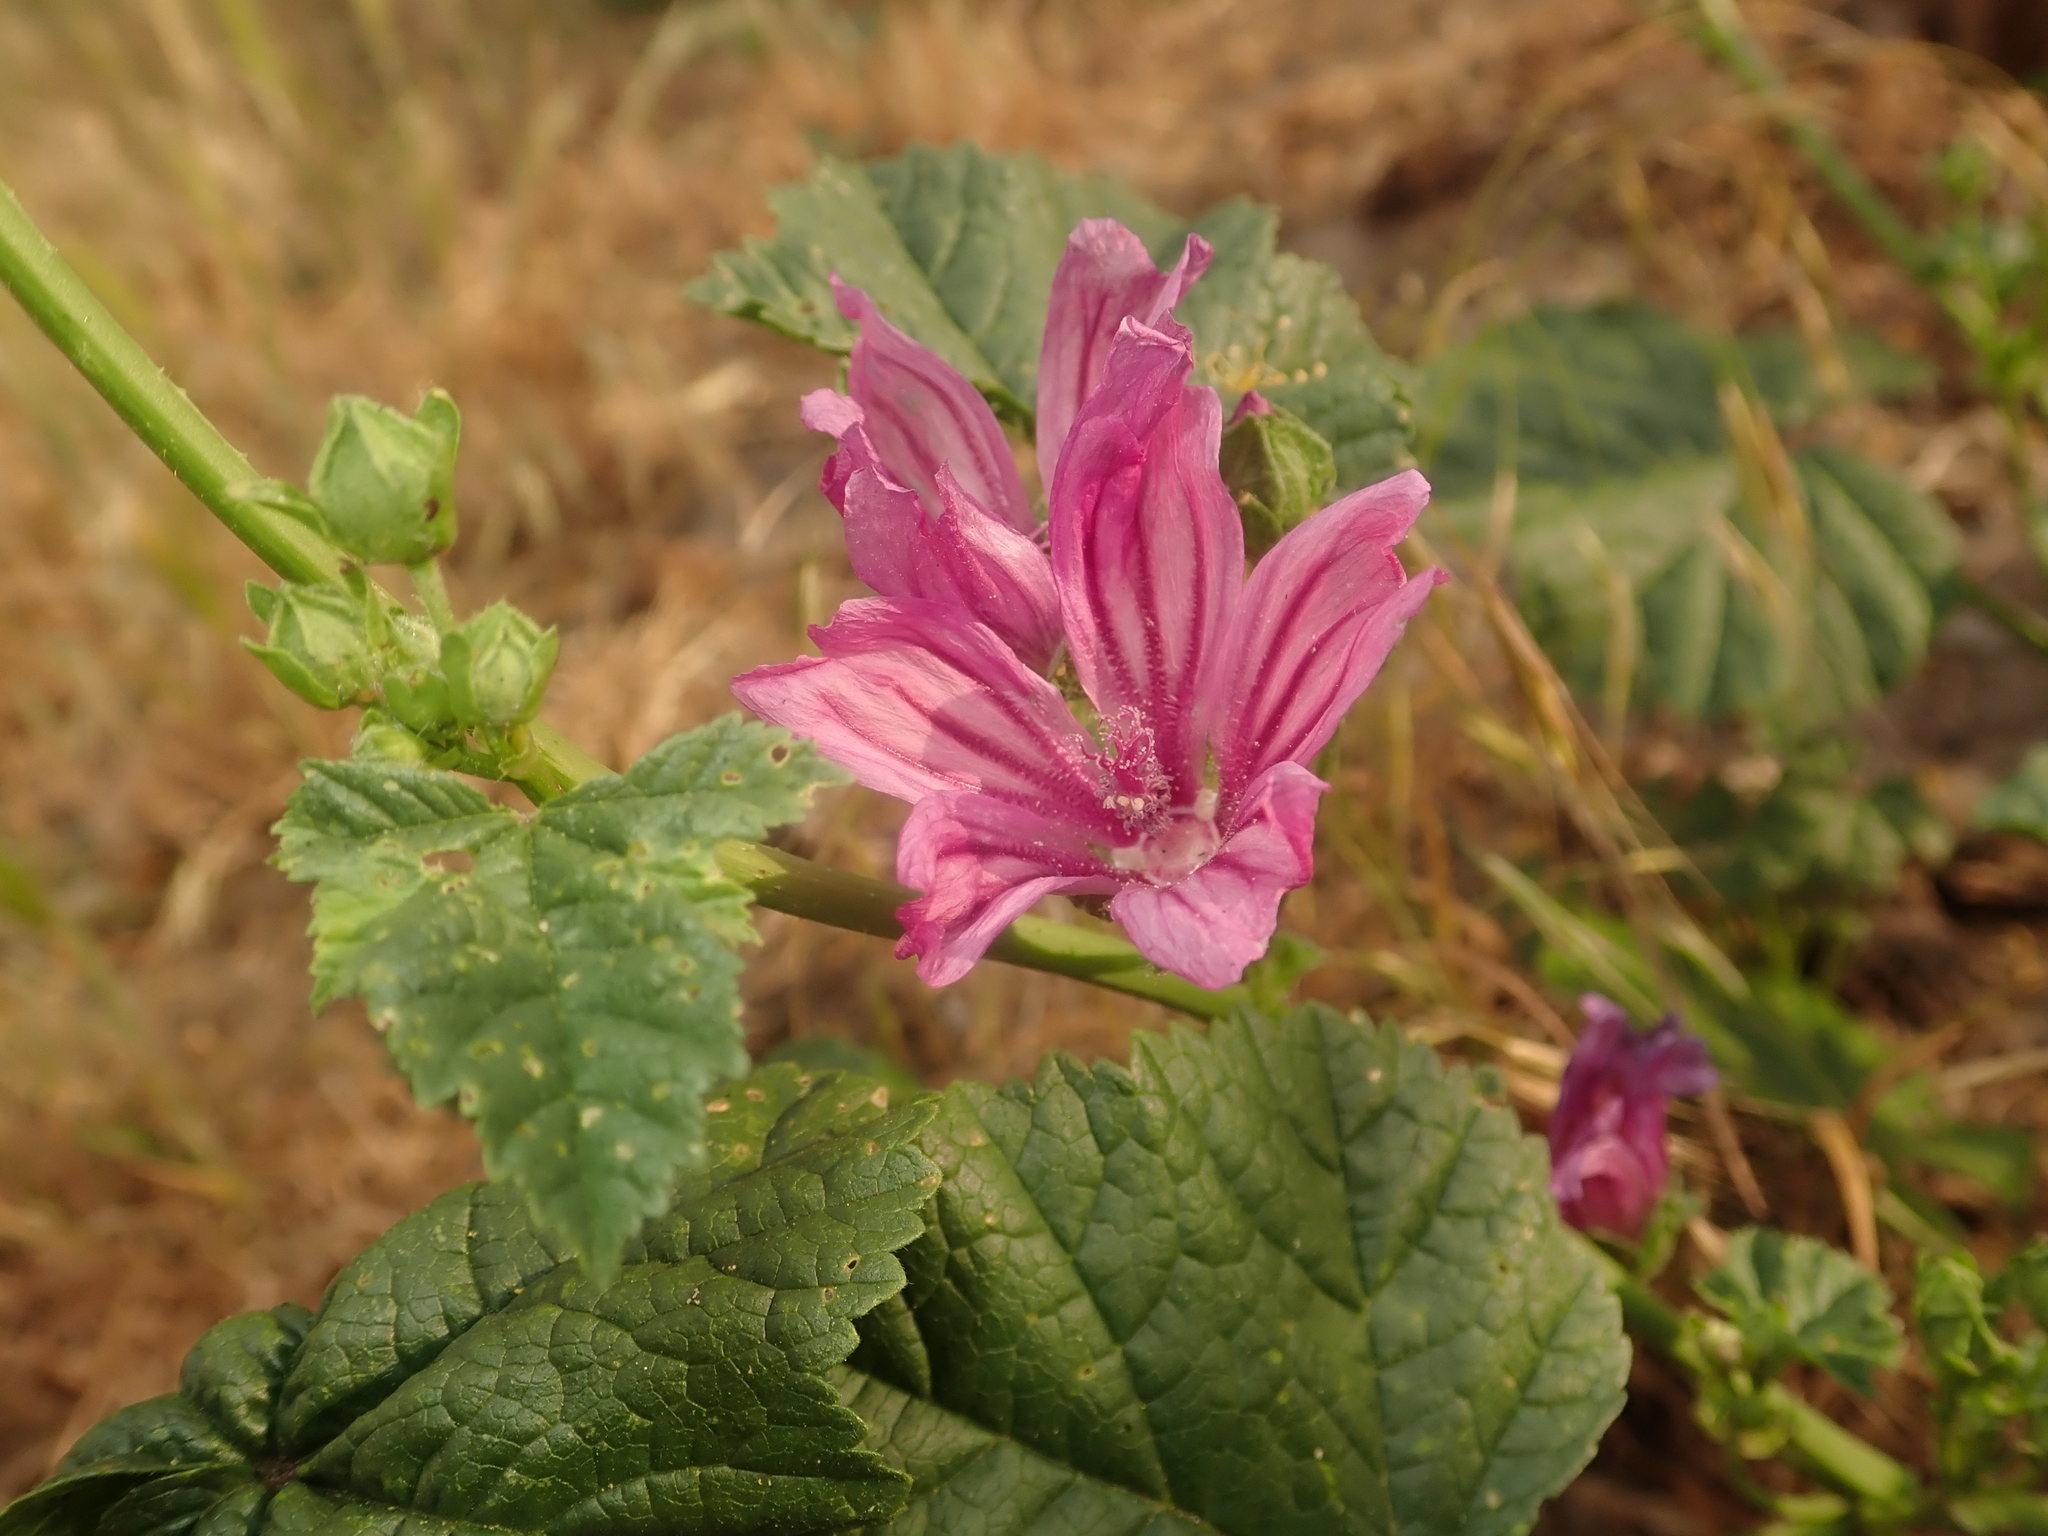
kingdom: Plantae
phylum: Tracheophyta
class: Magnoliopsida
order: Malvales
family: Malvaceae
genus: Malva
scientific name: Malva sylvestris
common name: Common mallow
